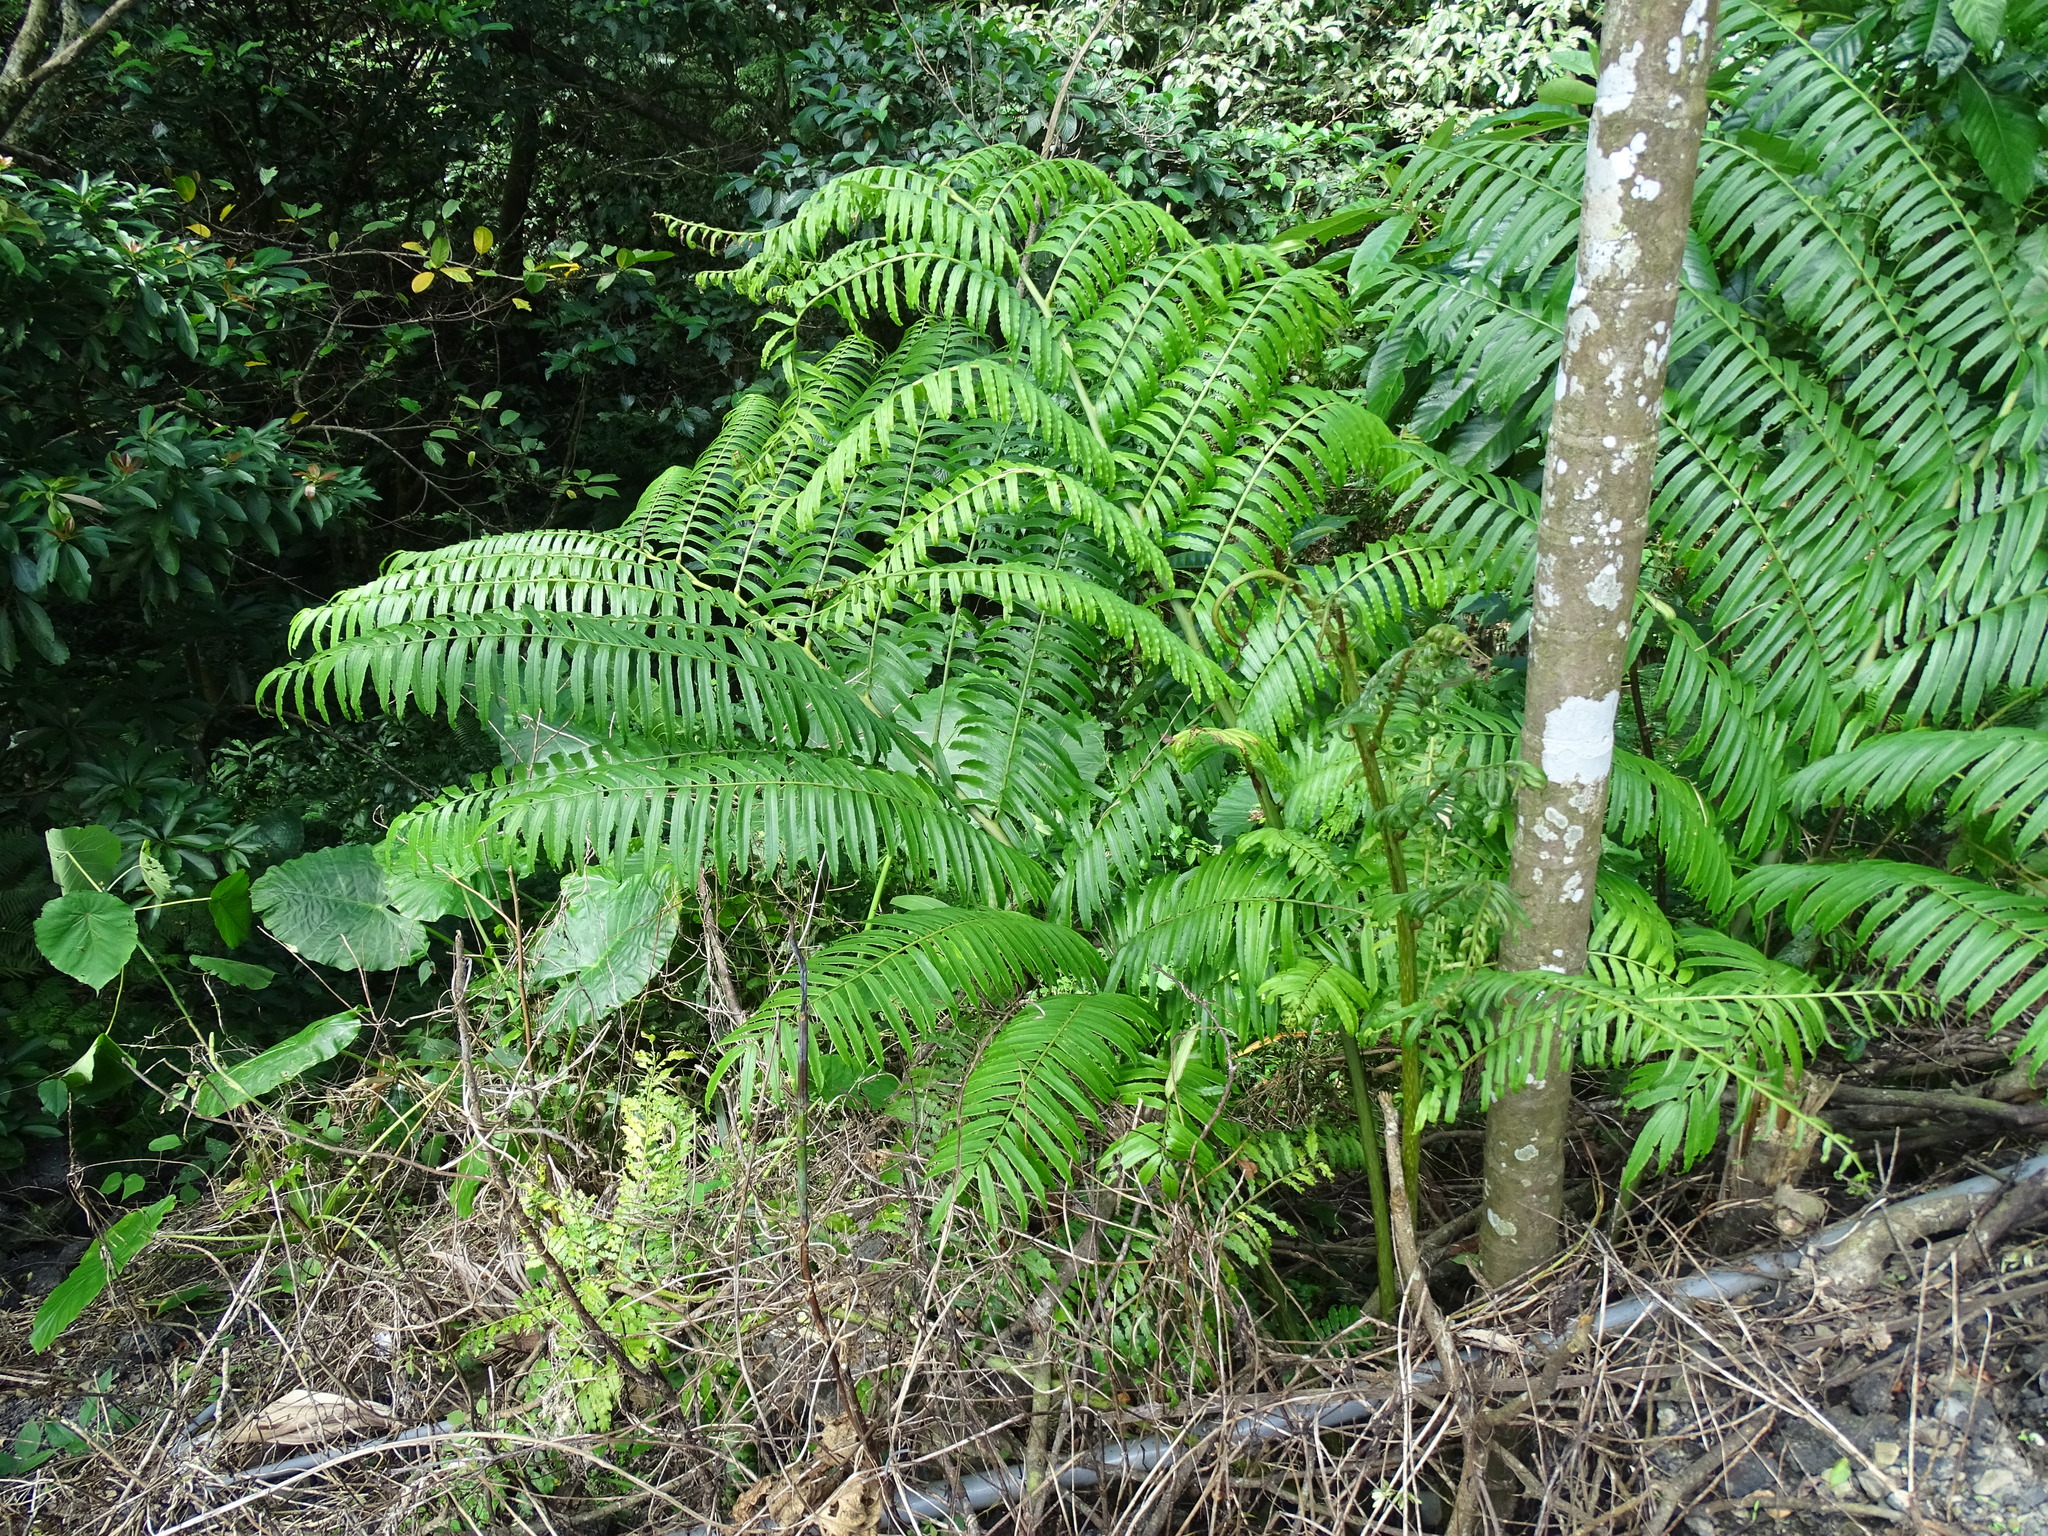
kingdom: Plantae
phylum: Tracheophyta
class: Polypodiopsida
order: Marattiales
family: Marattiaceae
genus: Angiopteris
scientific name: Angiopteris lygodiifolia
